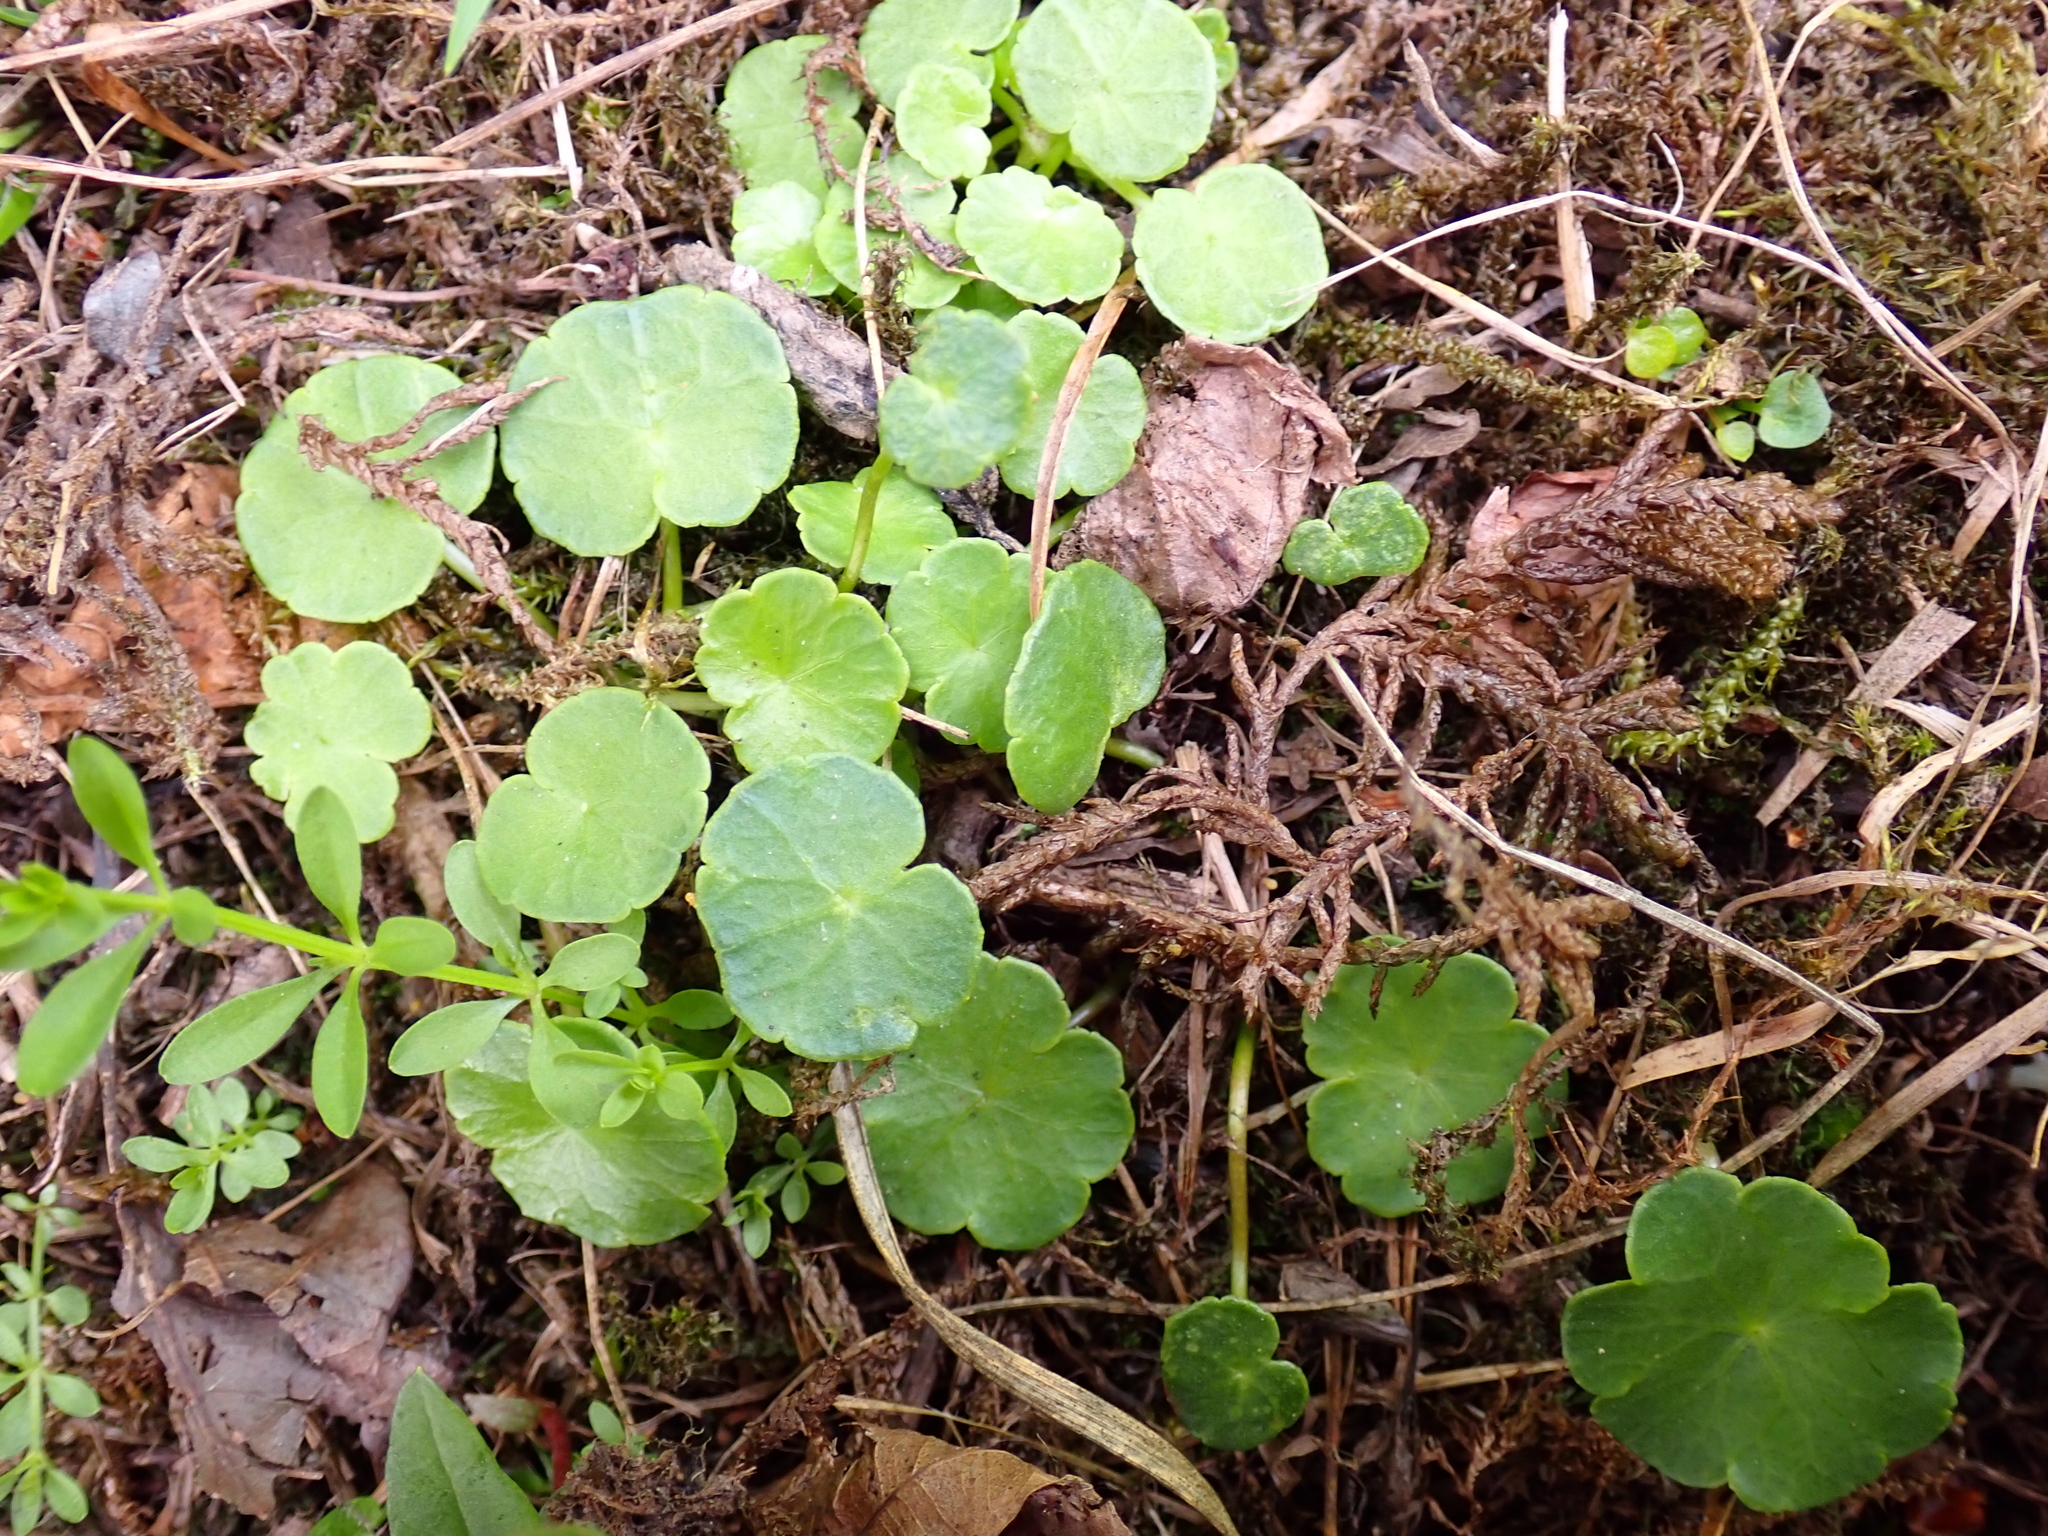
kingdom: Plantae
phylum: Tracheophyta
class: Magnoliopsida
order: Apiales
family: Araliaceae
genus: Hydrocotyle
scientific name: Hydrocotyle vulgaris
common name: Marsh pennywort
